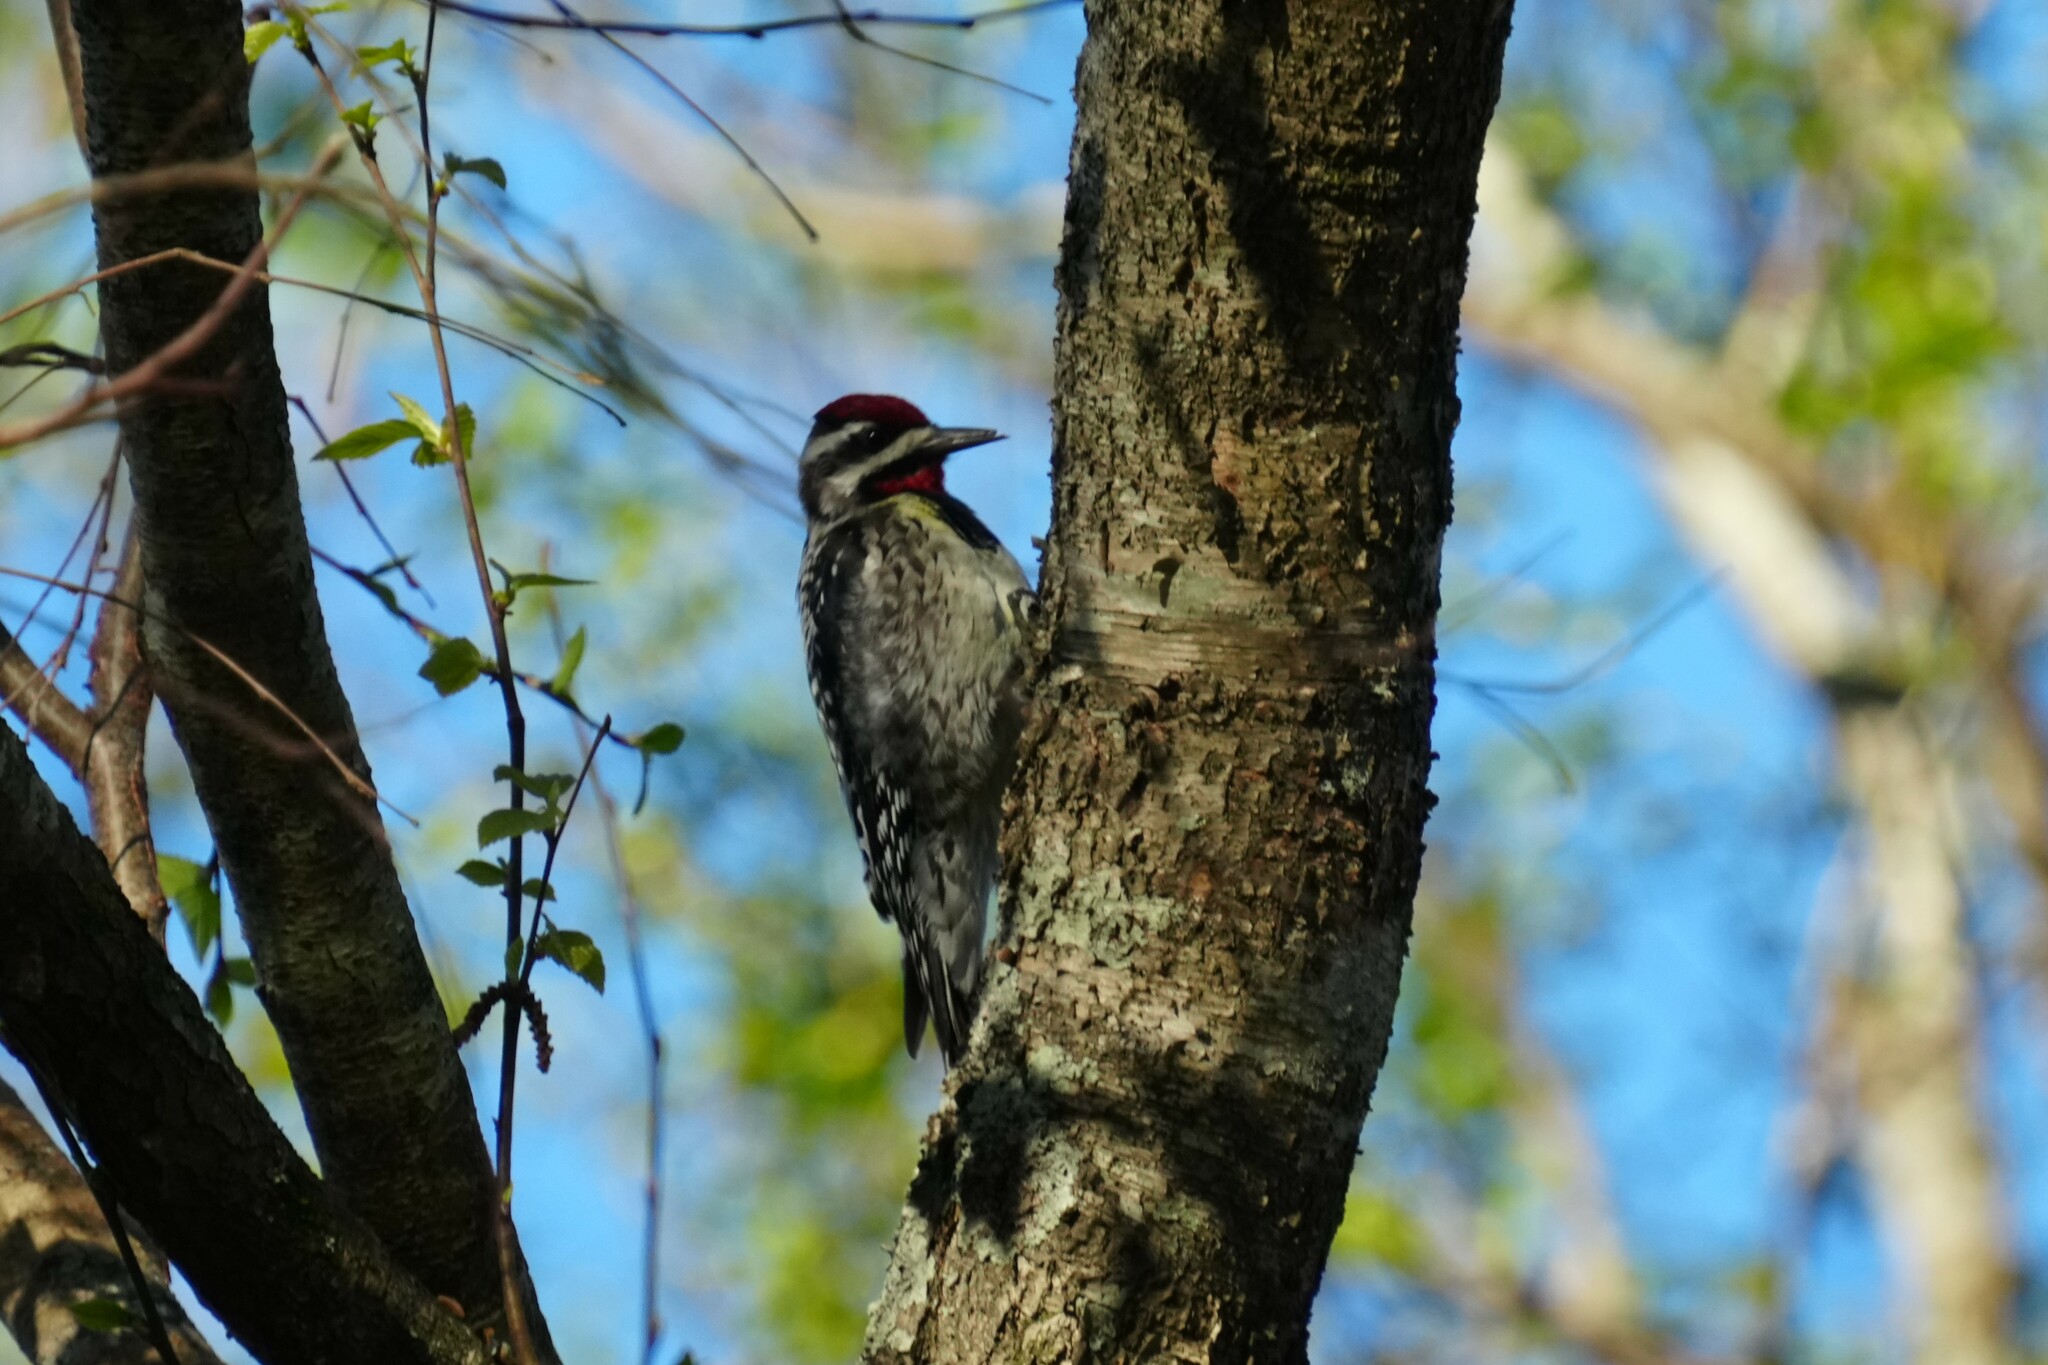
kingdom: Animalia
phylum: Chordata
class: Aves
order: Piciformes
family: Picidae
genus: Sphyrapicus
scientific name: Sphyrapicus varius
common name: Yellow-bellied sapsucker
